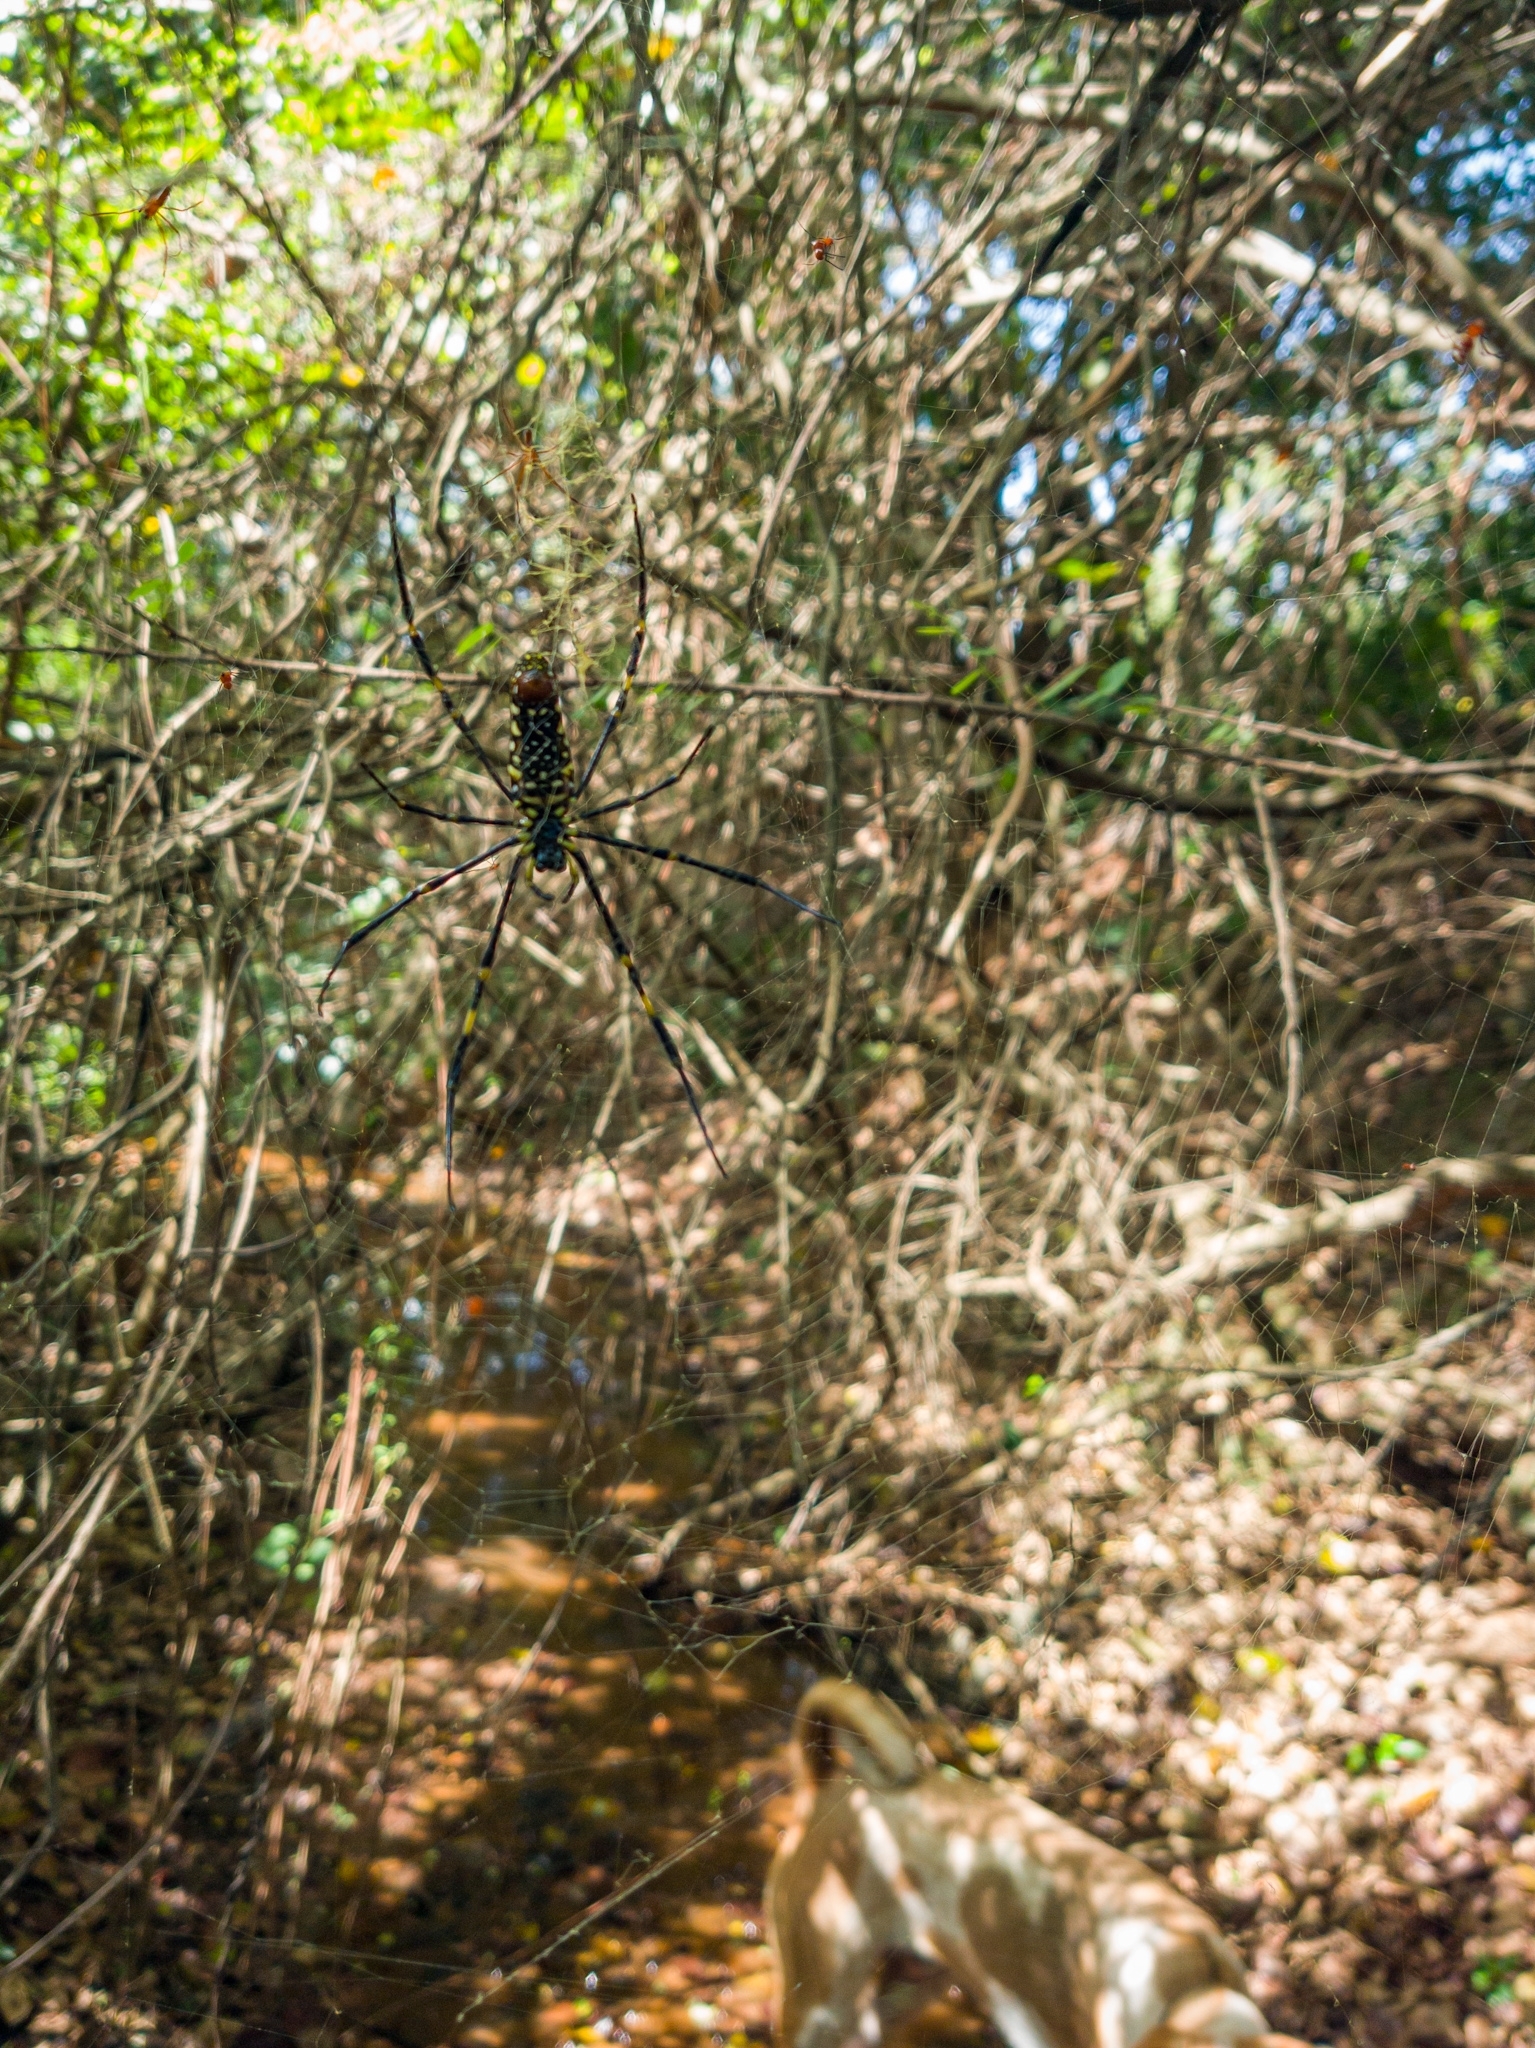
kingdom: Animalia
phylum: Arthropoda
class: Arachnida
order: Araneae
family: Araneidae
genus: Nephila
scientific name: Nephila pilipes
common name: Giant golden orb weaver
